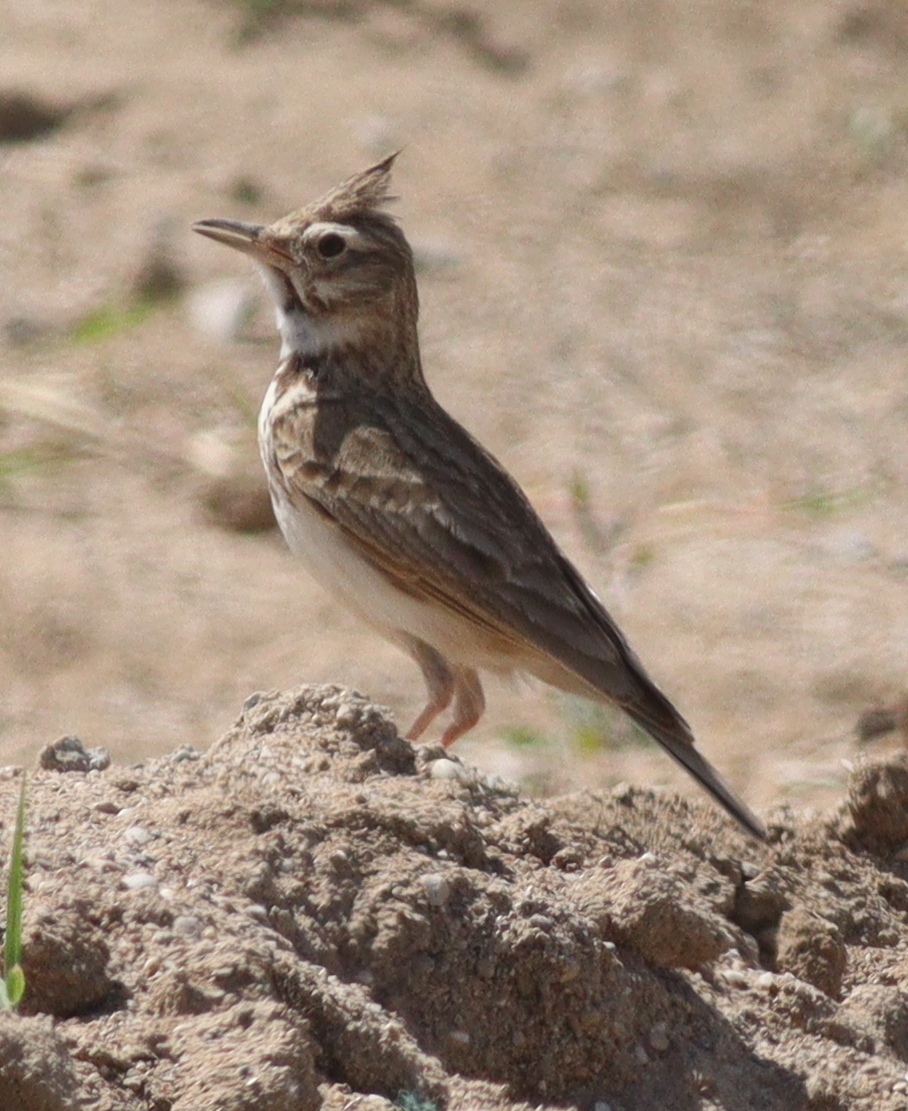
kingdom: Animalia
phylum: Chordata
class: Aves
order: Passeriformes
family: Alaudidae
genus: Galerida
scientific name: Galerida cristata
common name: Crested lark
